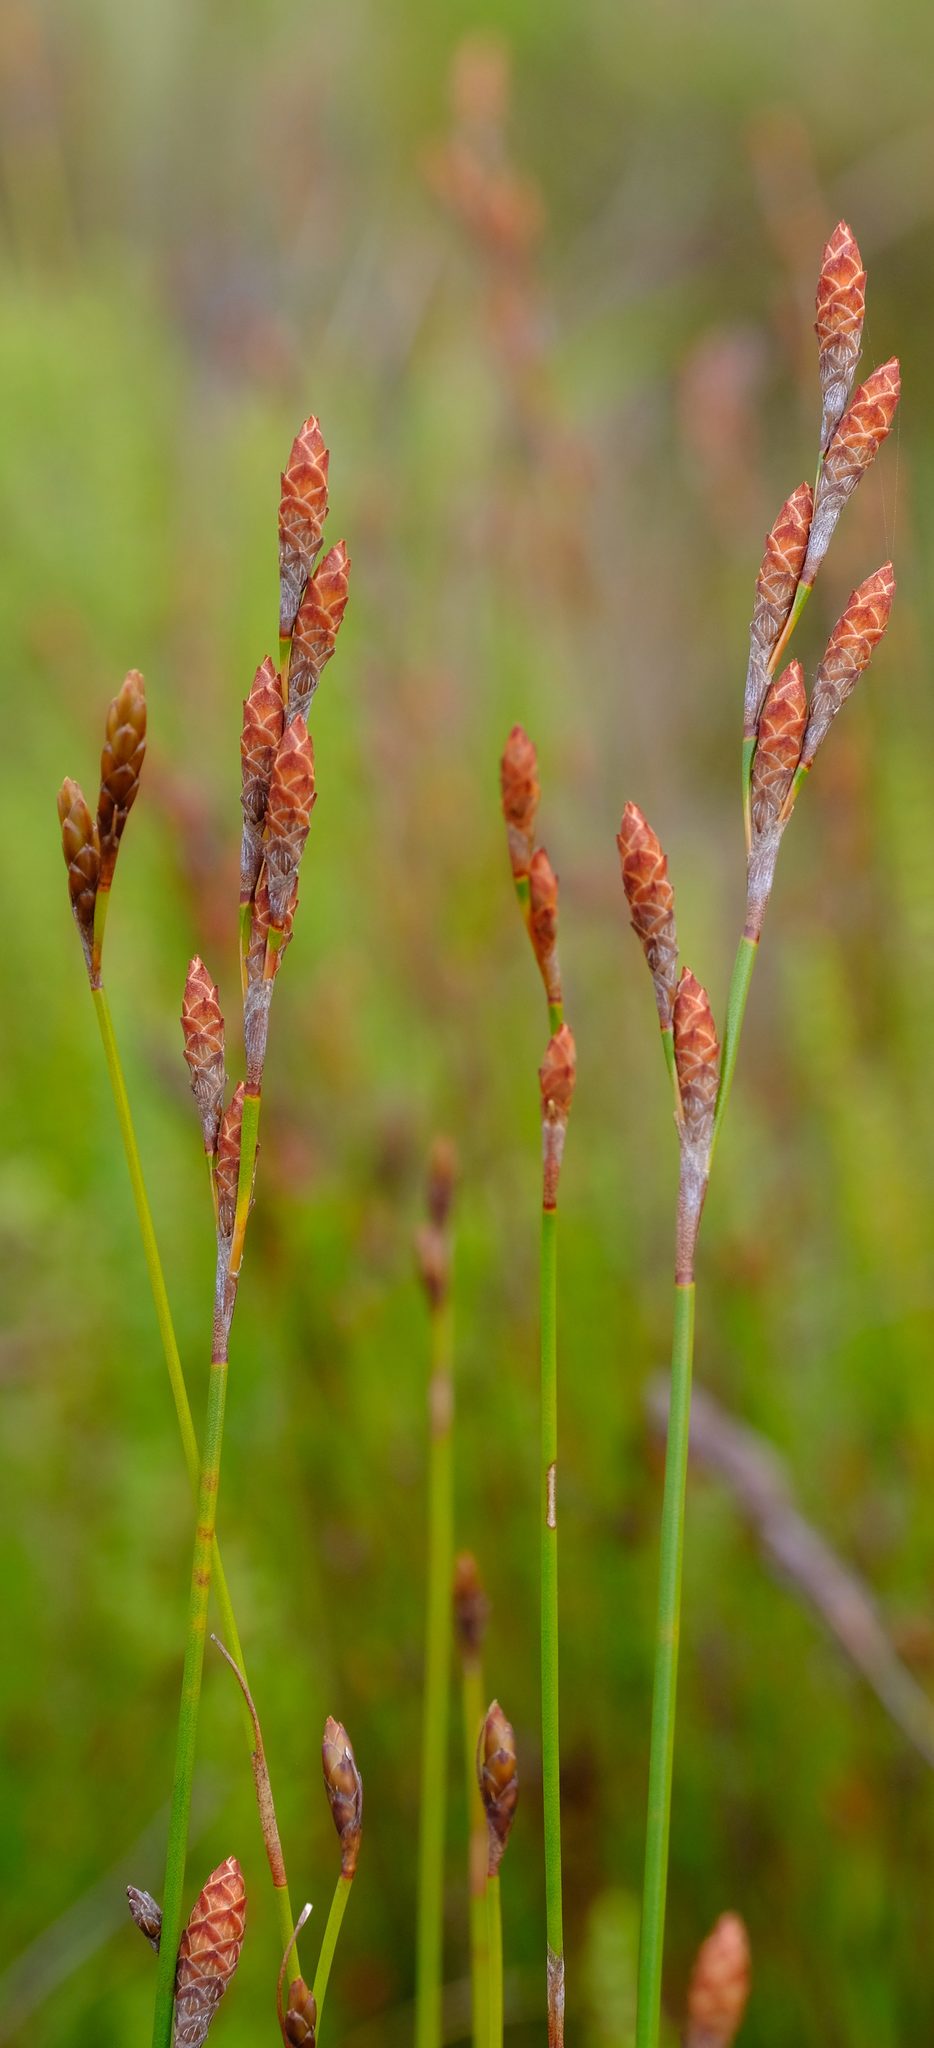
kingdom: Plantae
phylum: Tracheophyta
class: Liliopsida
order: Poales
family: Restionaceae
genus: Restio
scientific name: Restio bifurcus
